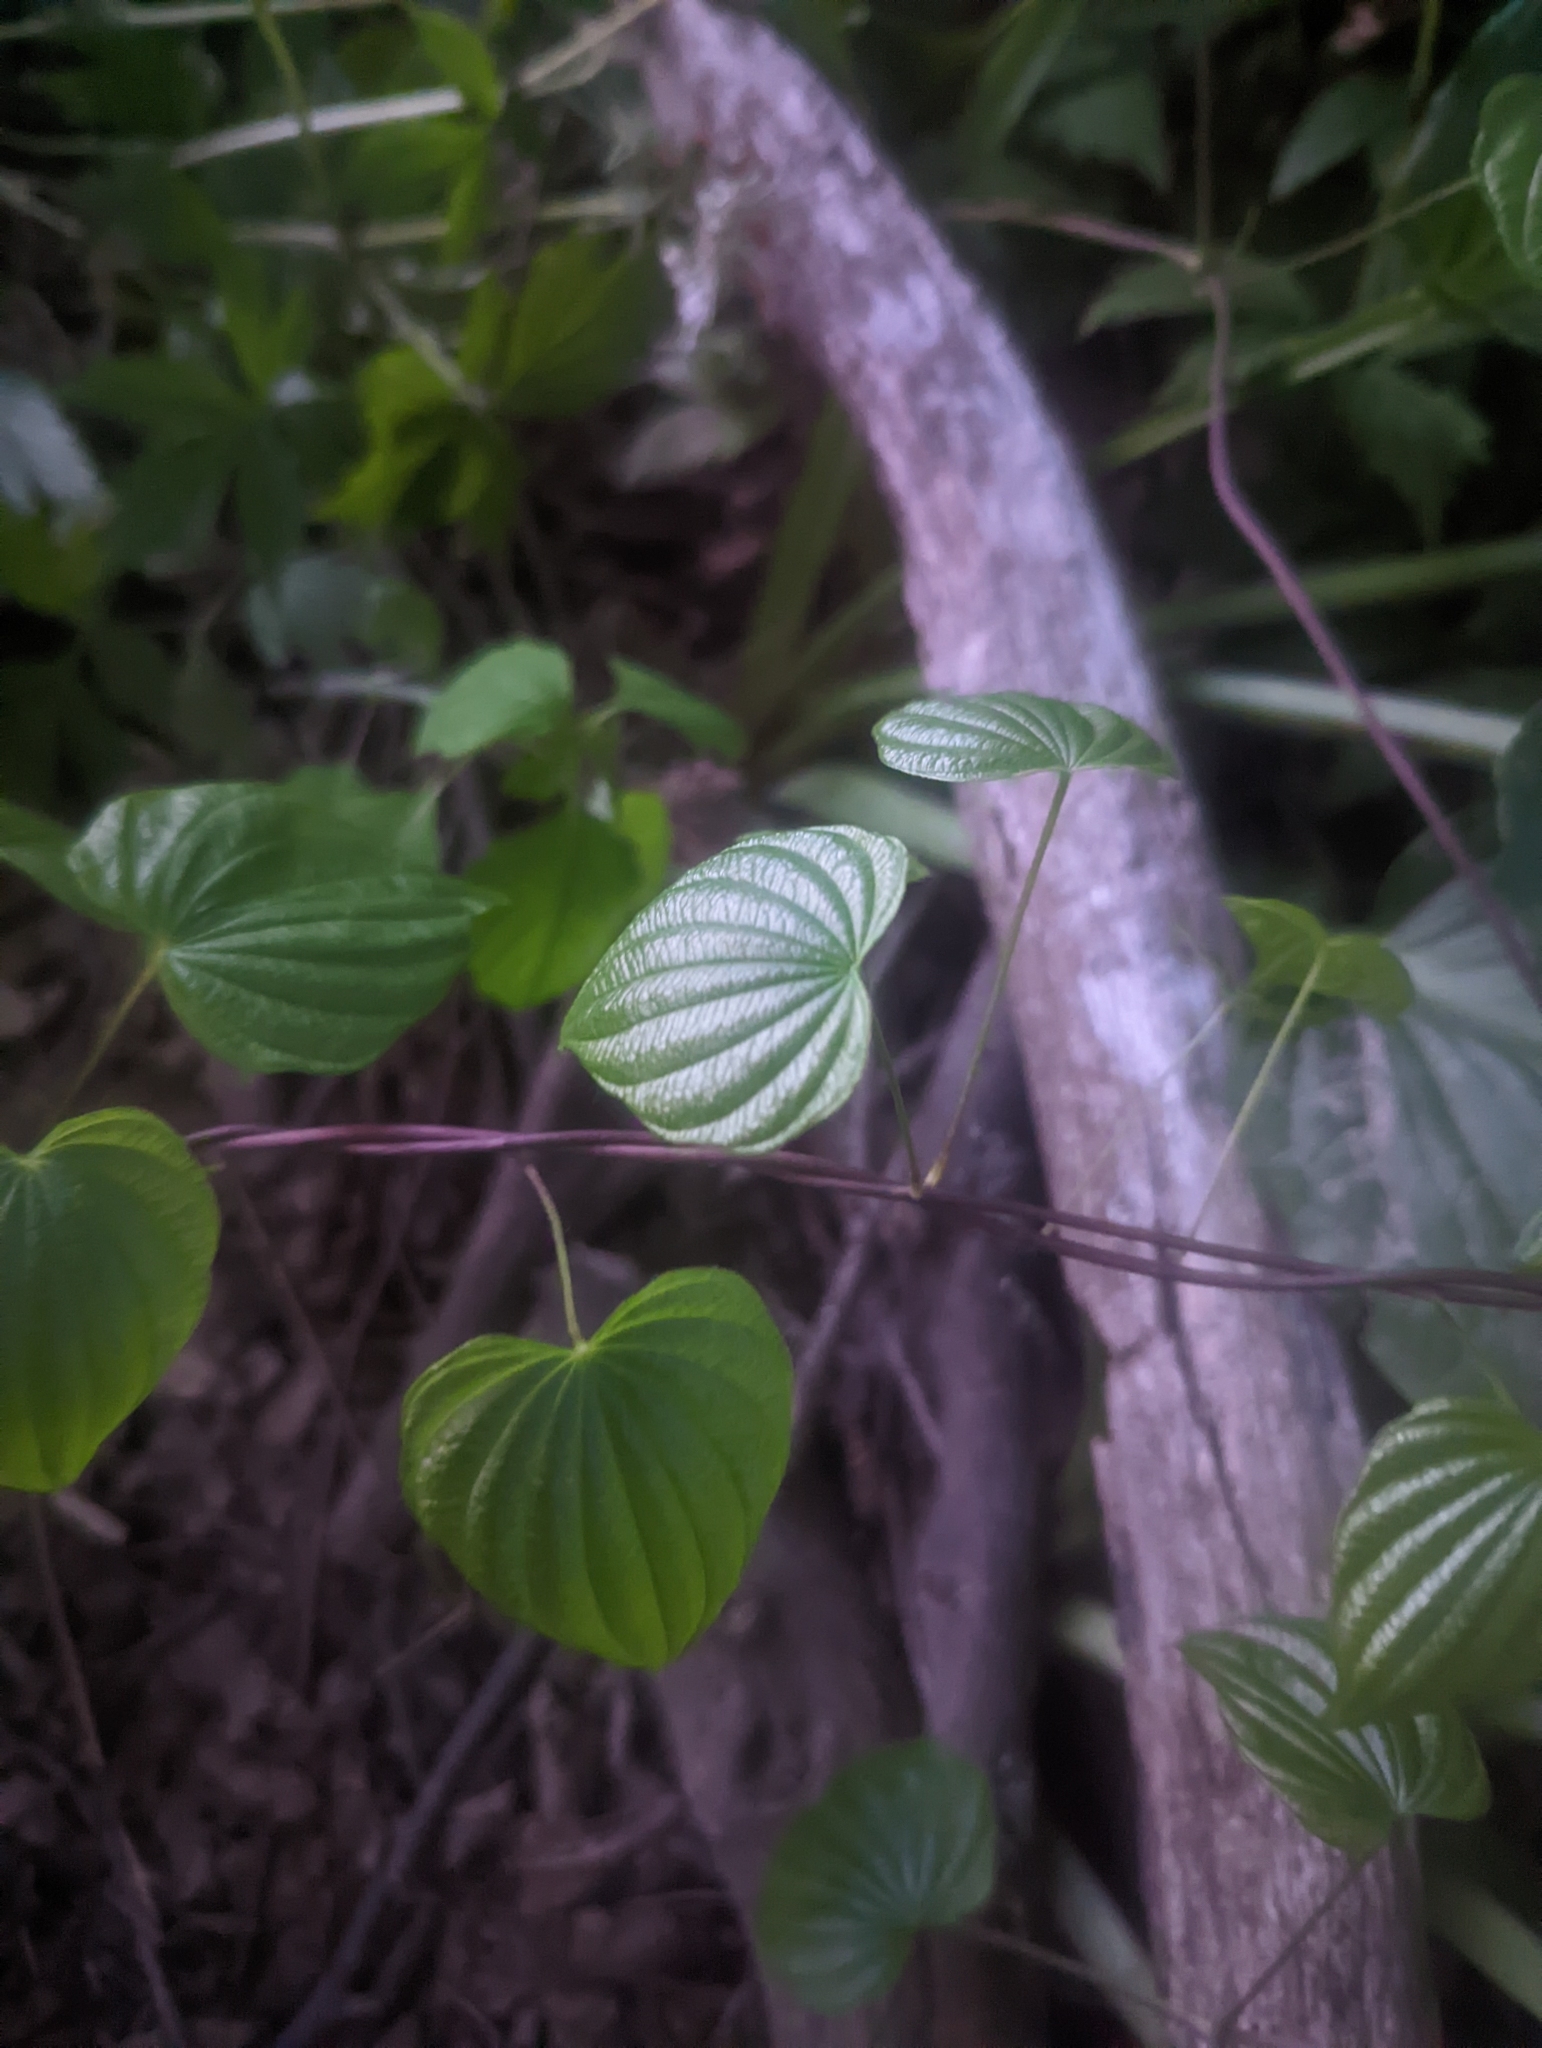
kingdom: Plantae
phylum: Tracheophyta
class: Liliopsida
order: Dioscoreales
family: Dioscoreaceae
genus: Dioscorea
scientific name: Dioscorea villosa
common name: Wild yam
